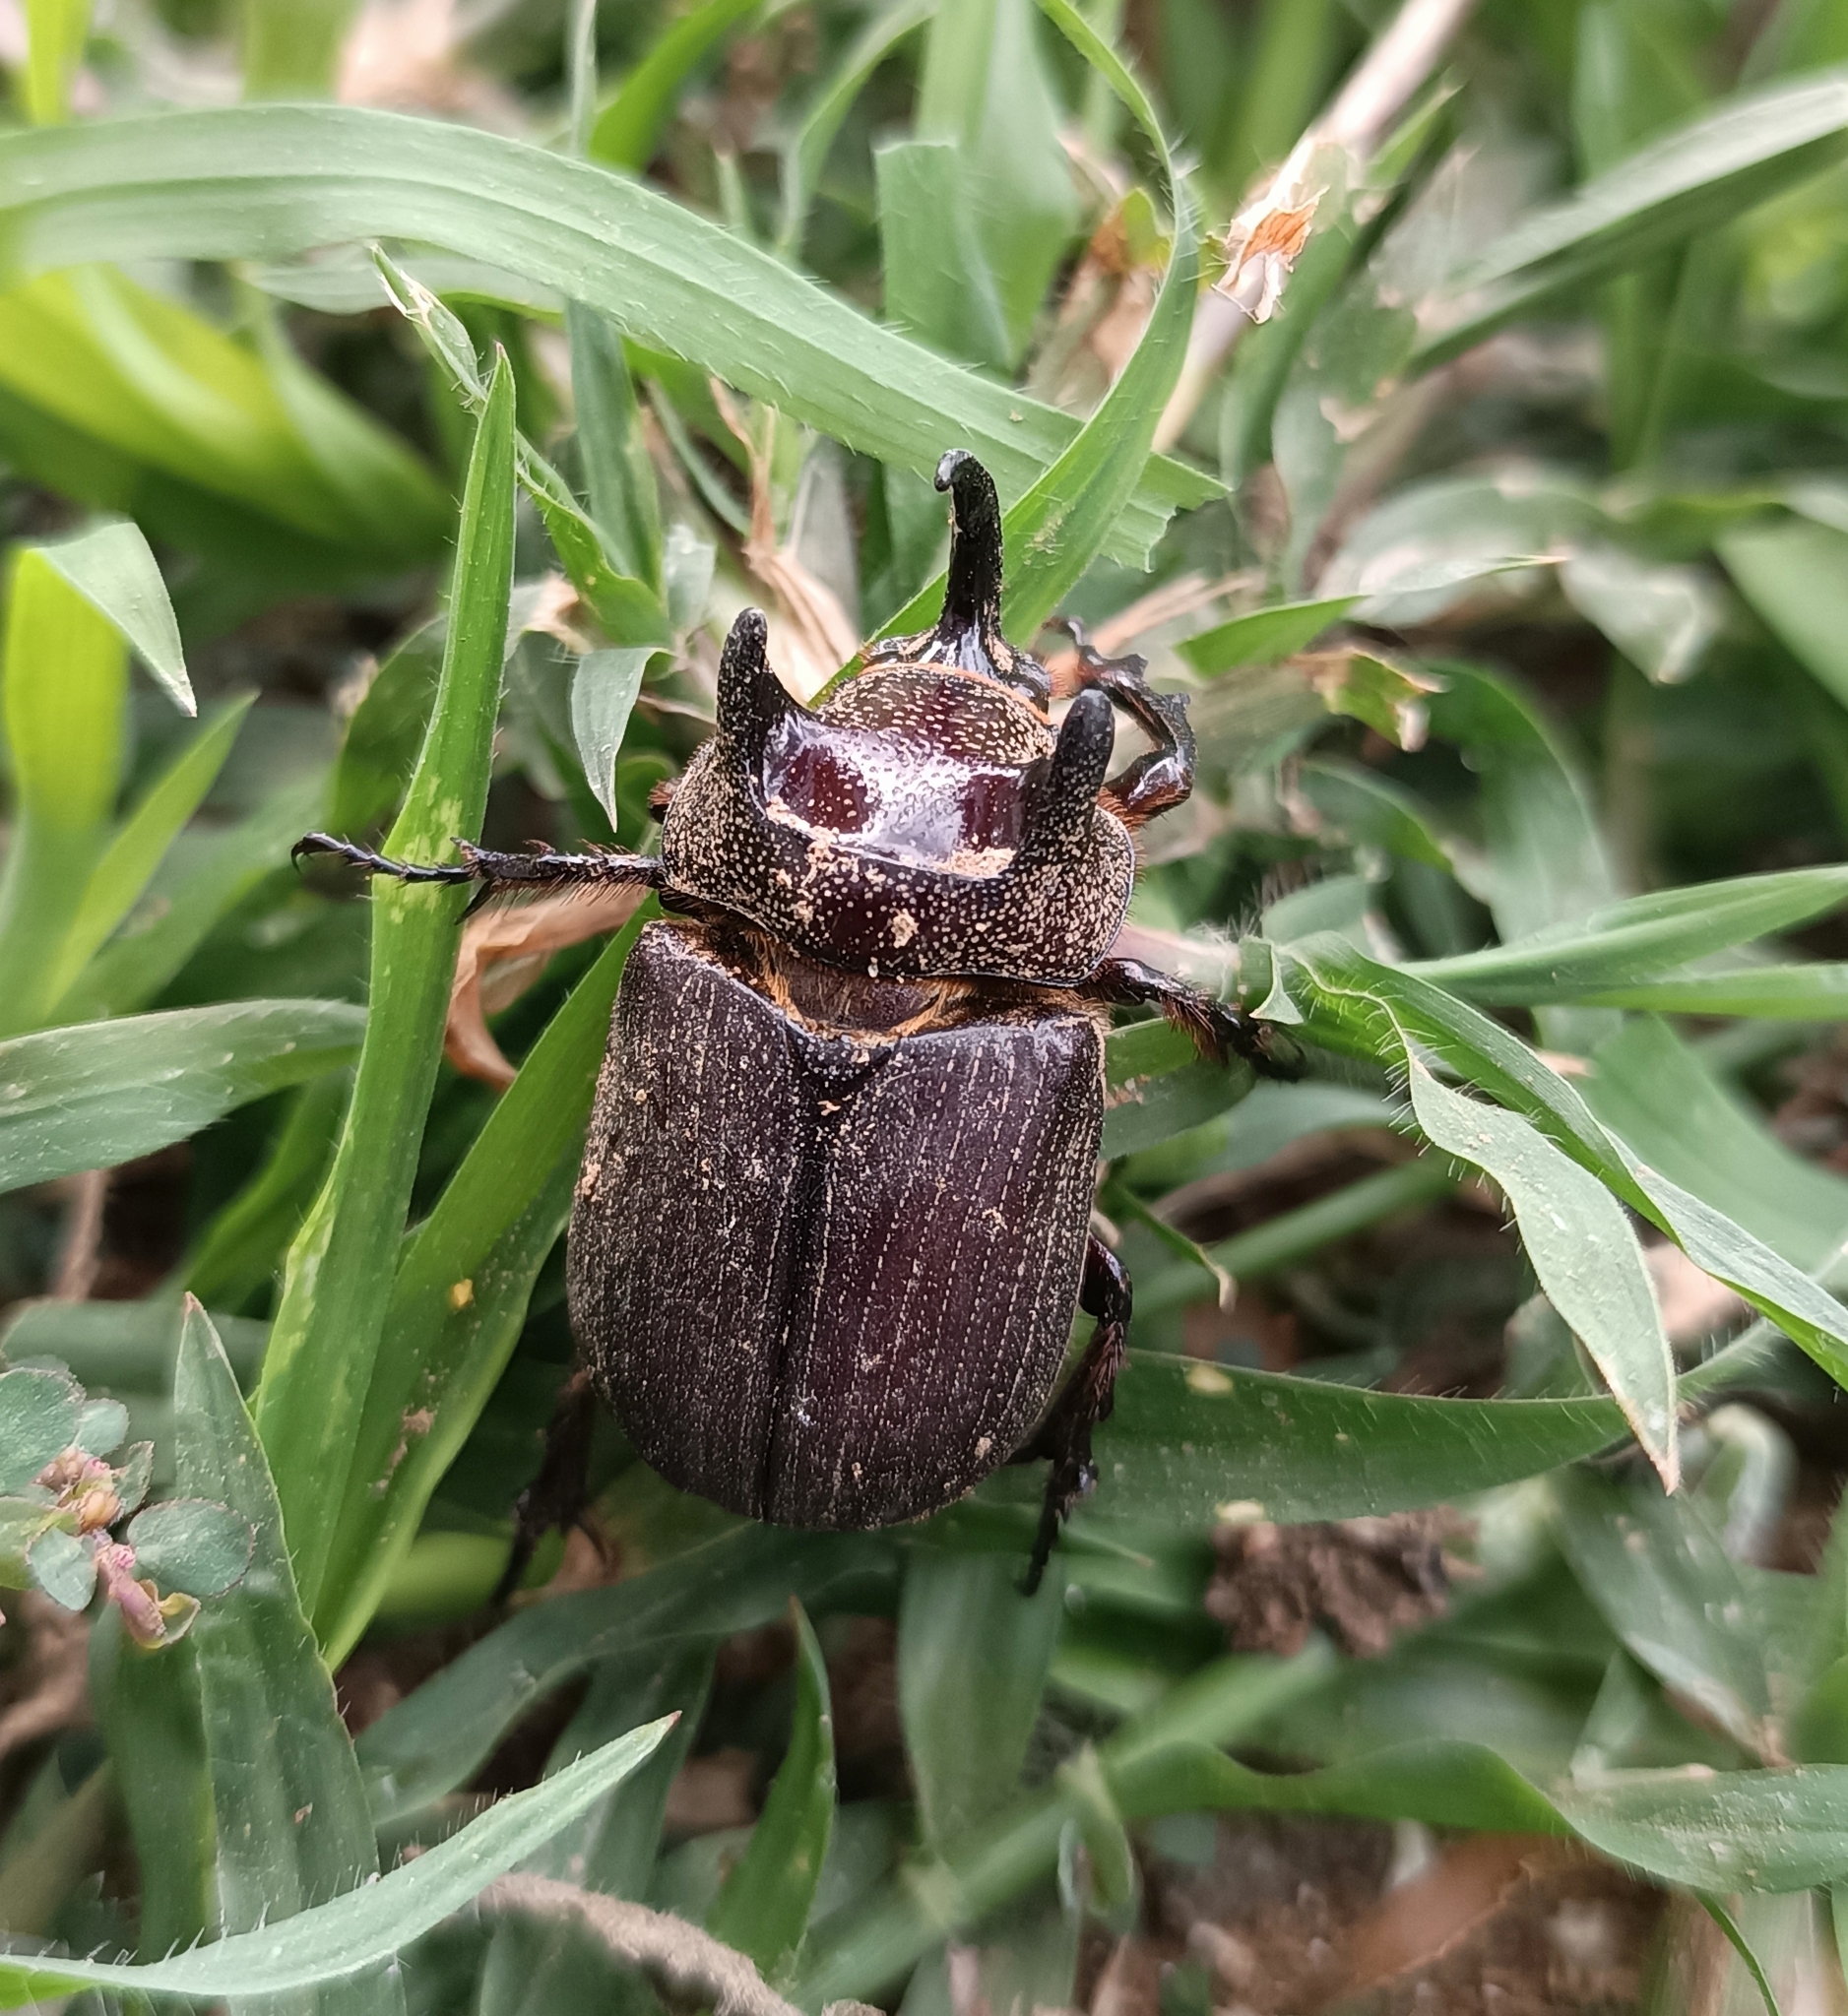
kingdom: Animalia
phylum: Arthropoda
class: Insecta
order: Coleoptera
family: Scarabaeidae
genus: Coelosis
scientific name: Coelosis bicornis
